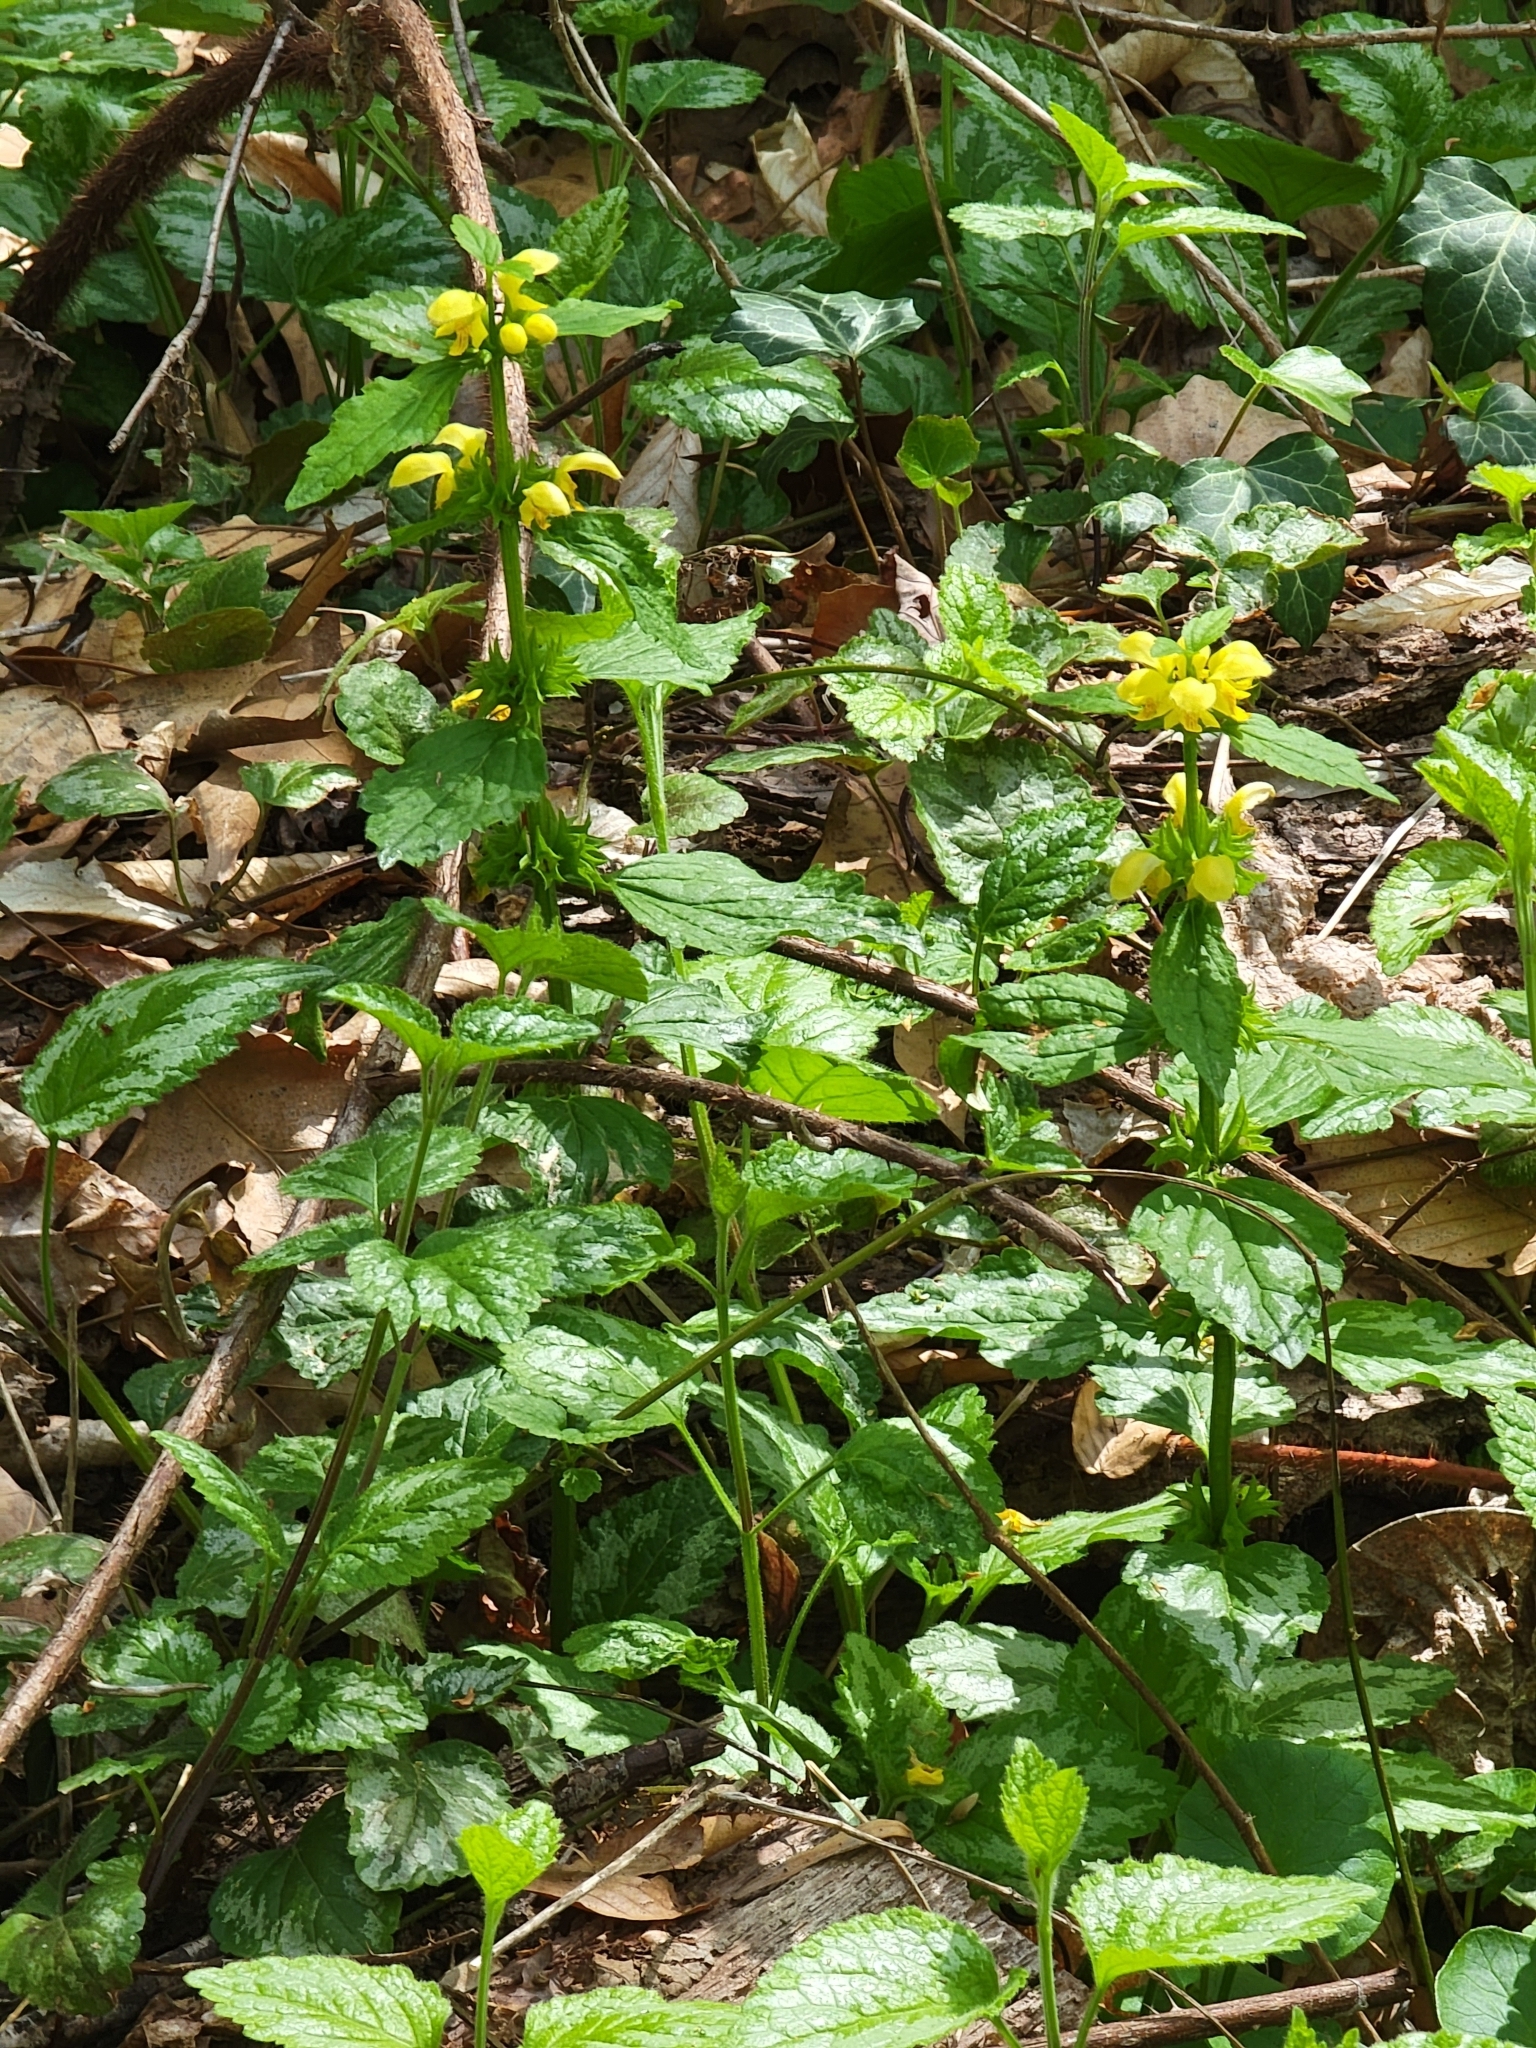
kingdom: Plantae
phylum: Tracheophyta
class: Magnoliopsida
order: Lamiales
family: Lamiaceae
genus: Lamium
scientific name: Lamium galeobdolon
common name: Yellow archangel
